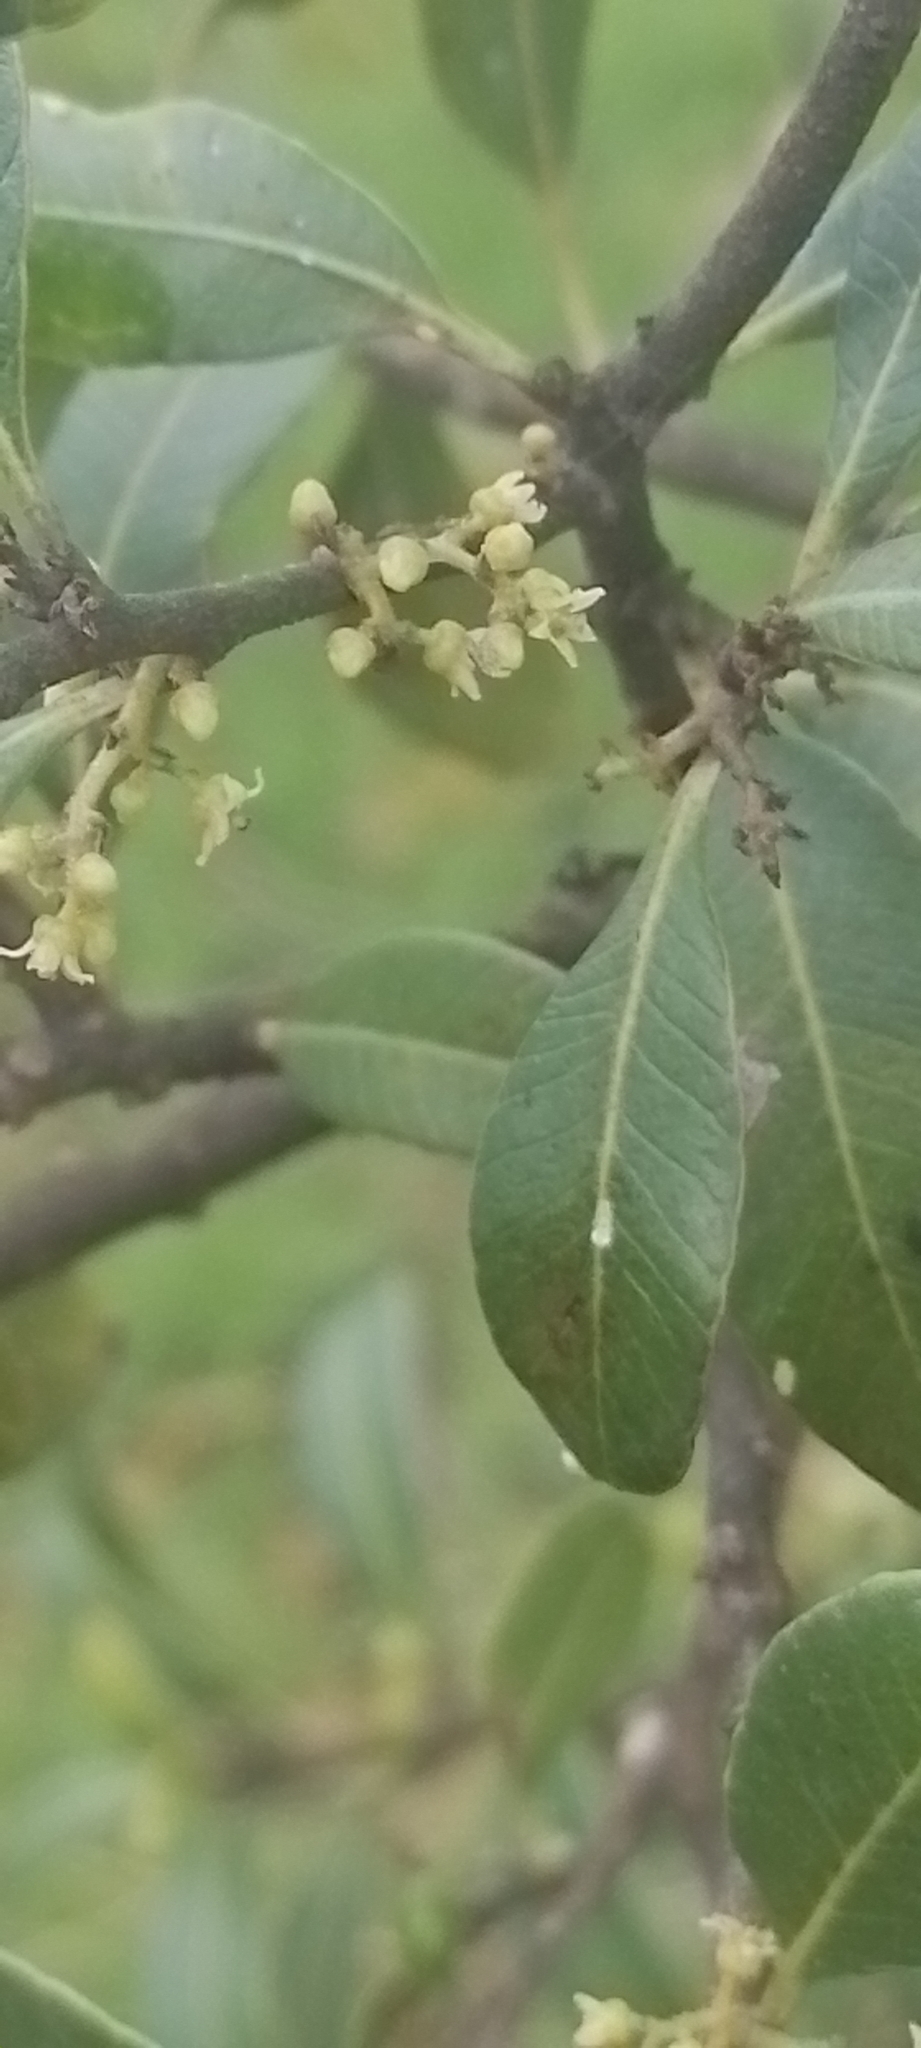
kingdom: Plantae
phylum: Tracheophyta
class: Magnoliopsida
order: Sapindales
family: Anacardiaceae
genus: Lithraea
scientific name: Lithraea brasiliensis
